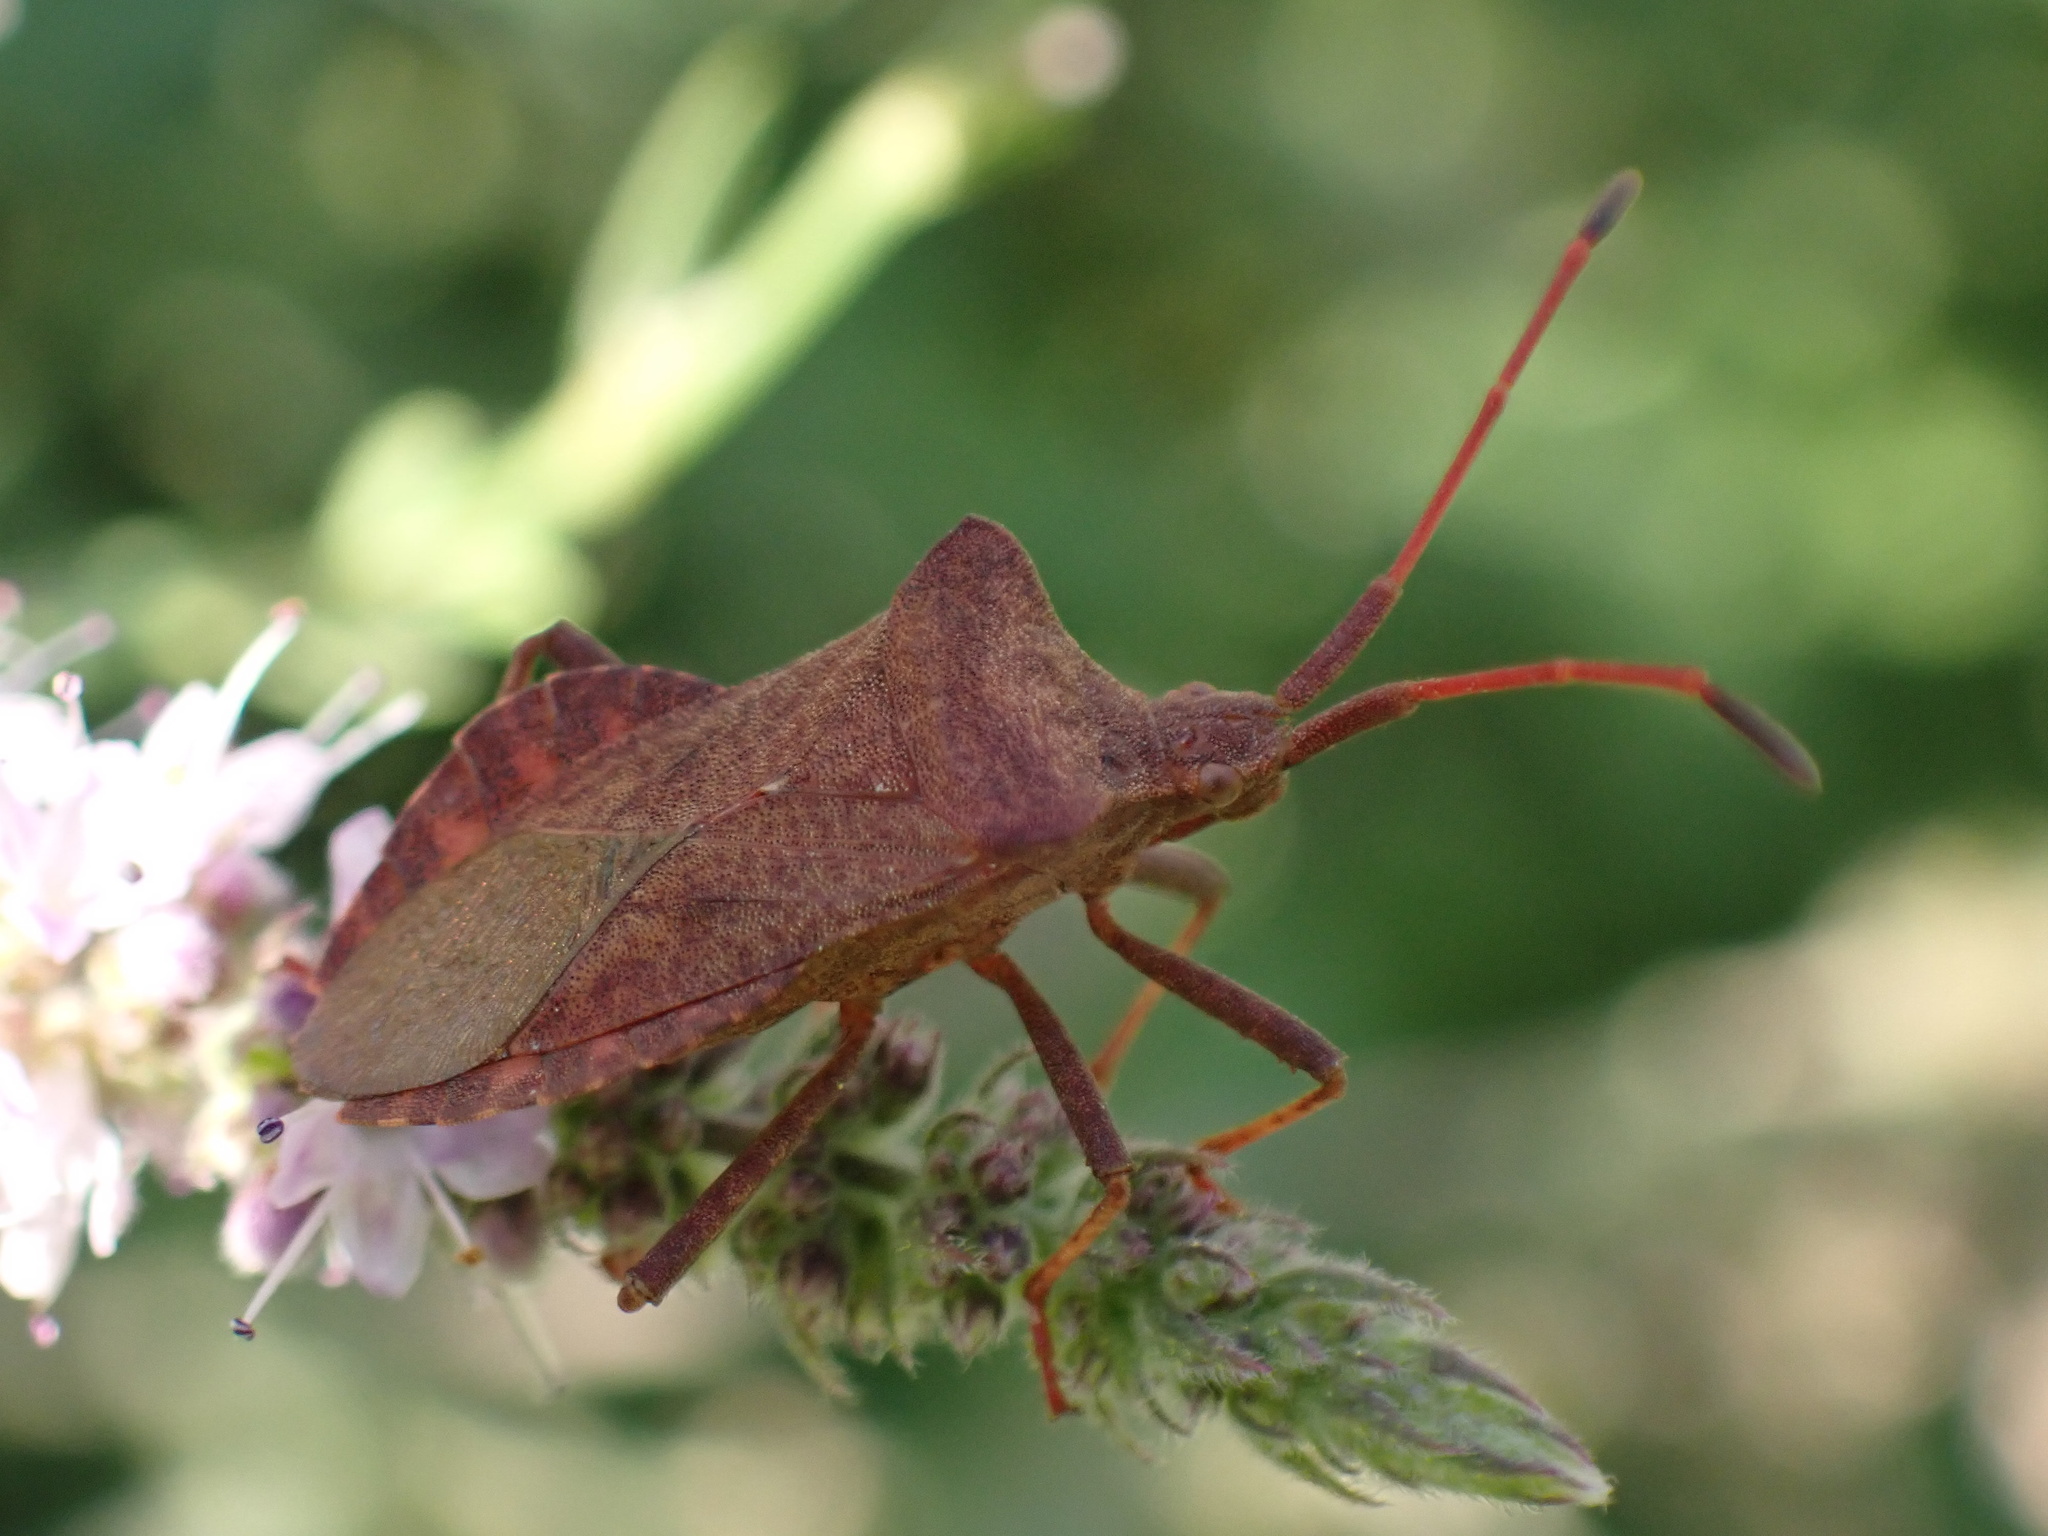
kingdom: Animalia
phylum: Arthropoda
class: Insecta
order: Hemiptera
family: Coreidae
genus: Coreus
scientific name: Coreus marginatus
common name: Dock bug
